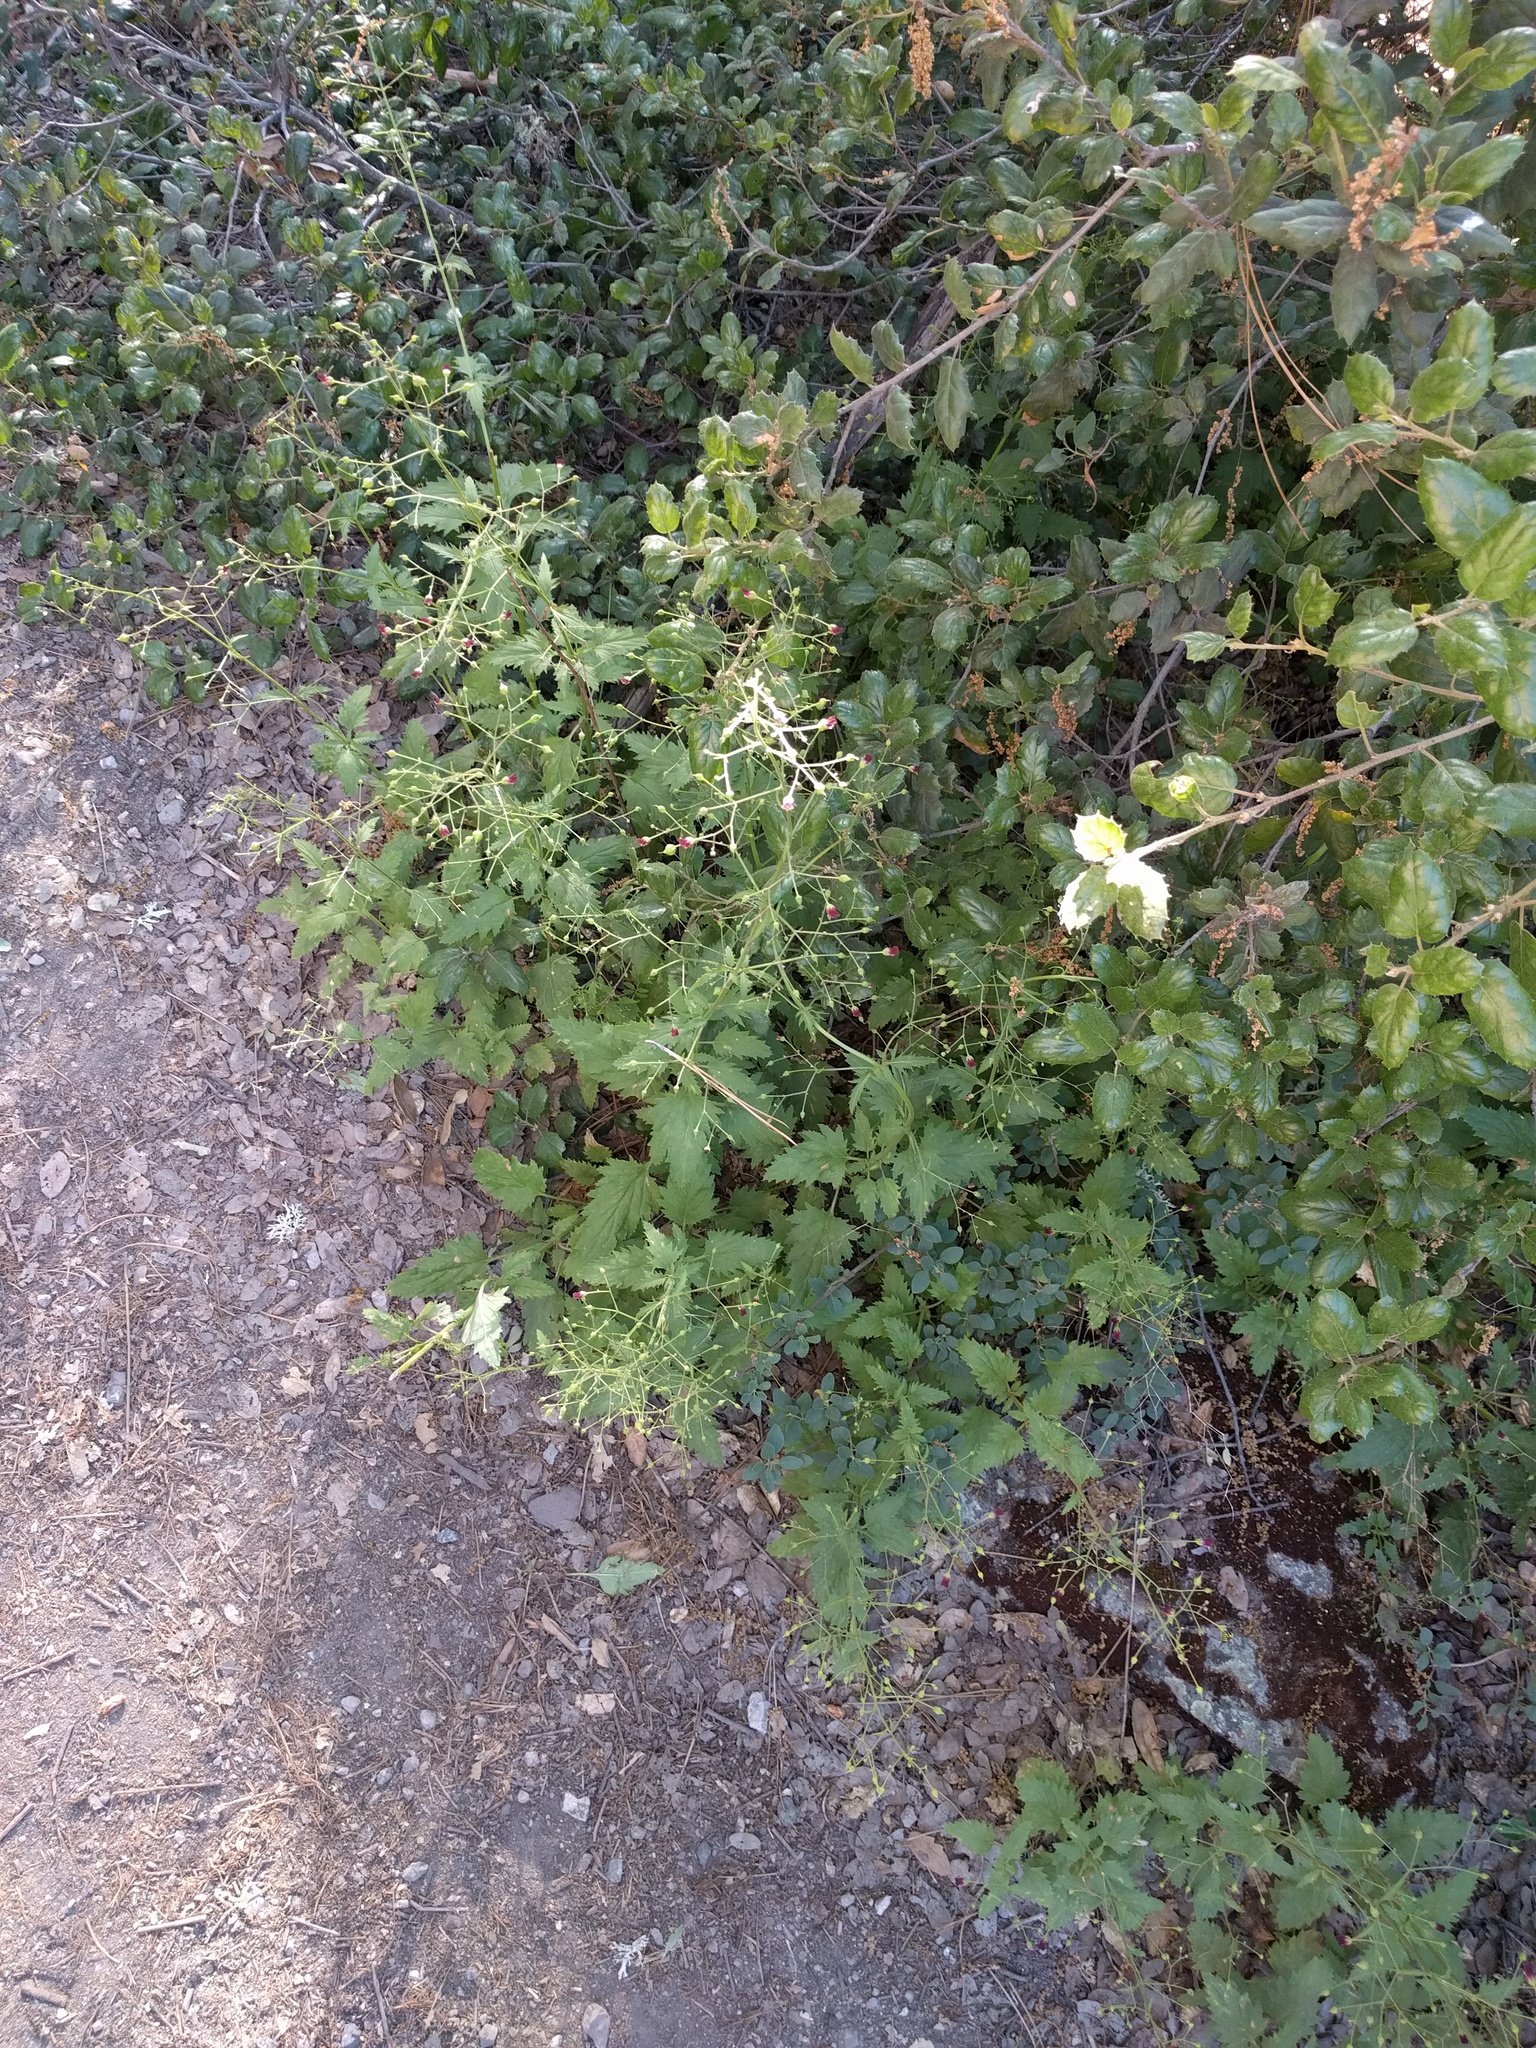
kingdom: Plantae
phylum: Tracheophyta
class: Magnoliopsida
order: Lamiales
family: Scrophulariaceae
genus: Scrophularia
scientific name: Scrophularia californica
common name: California figwort
